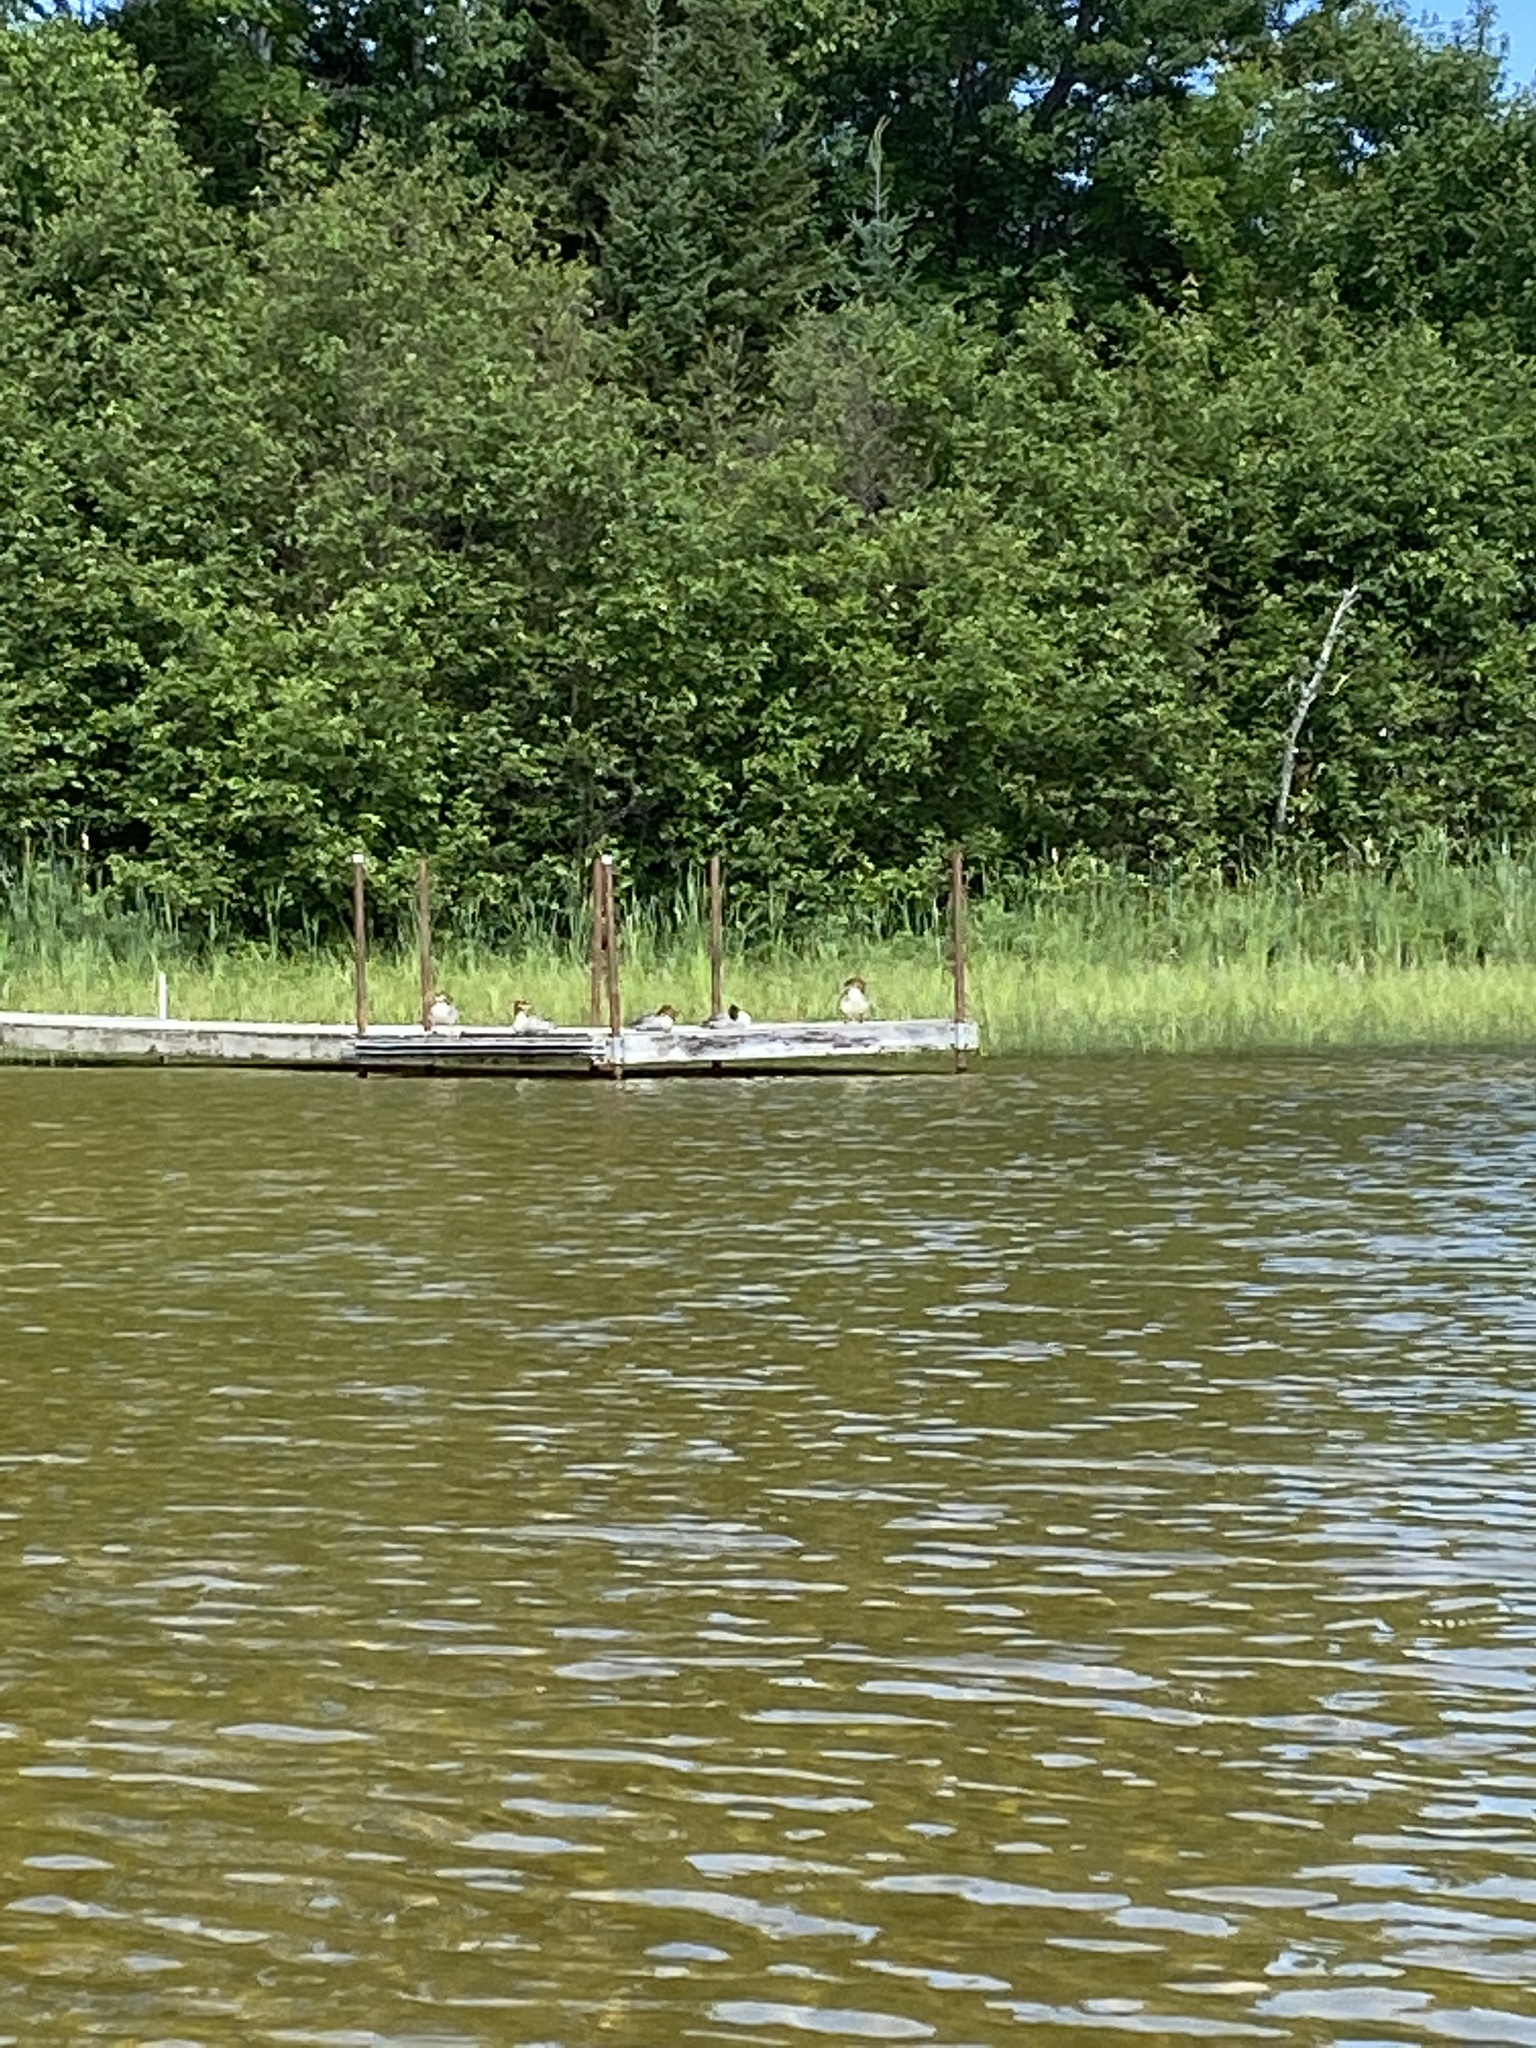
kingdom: Animalia
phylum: Chordata
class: Aves
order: Anseriformes
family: Anatidae
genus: Mergus
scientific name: Mergus merganser
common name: Common merganser
